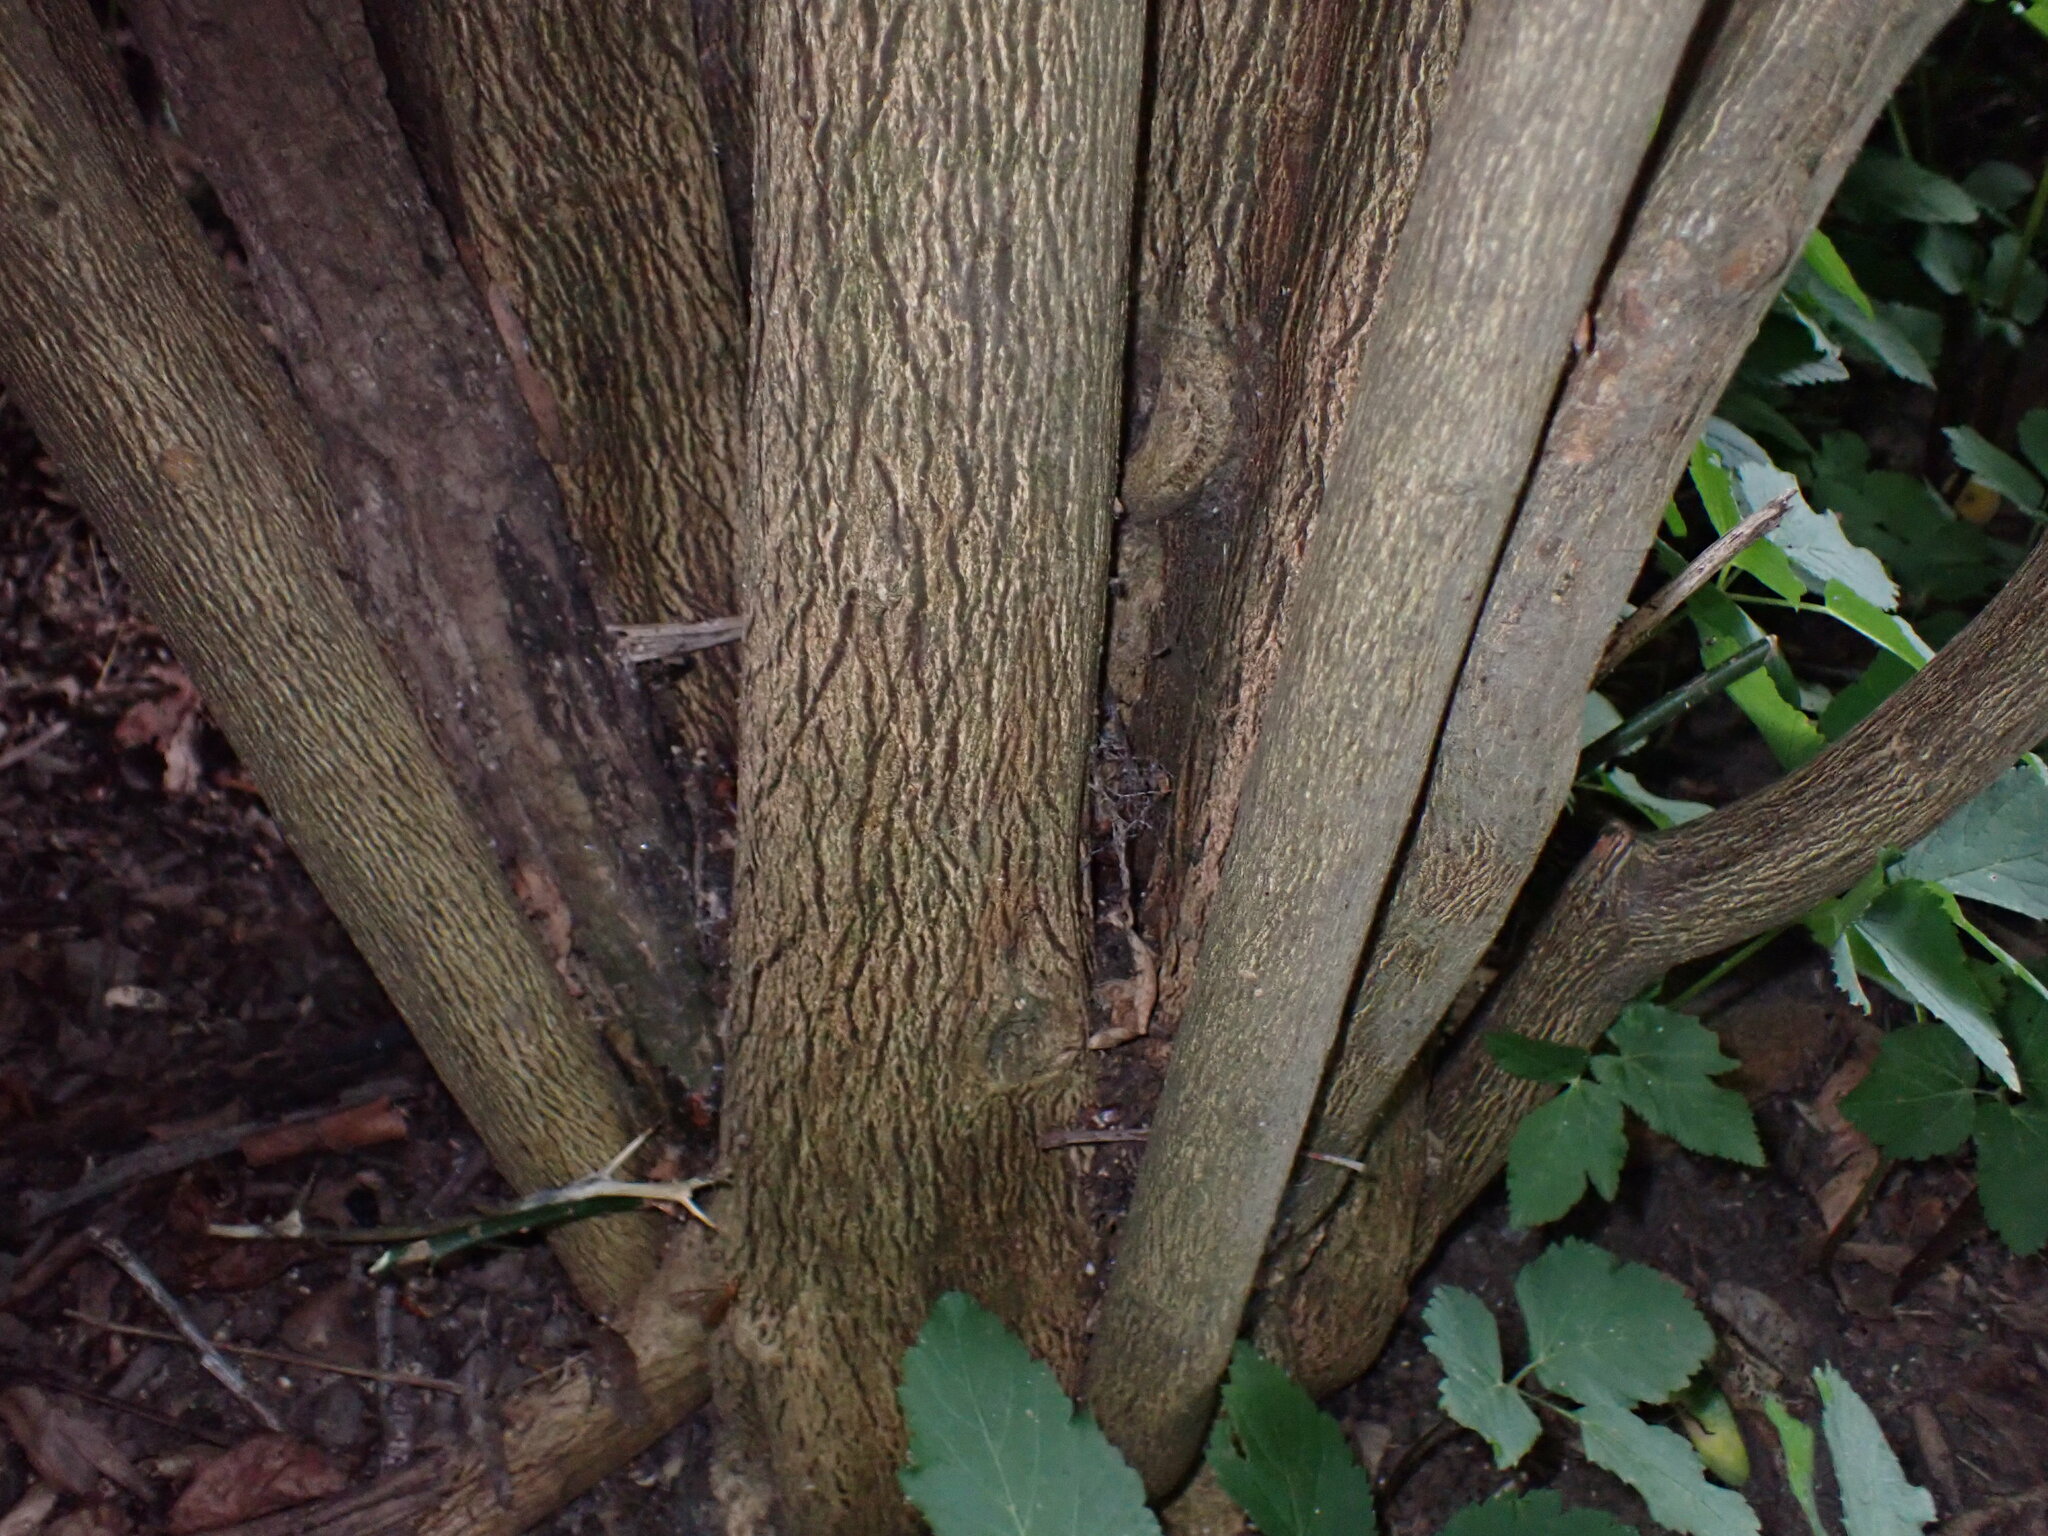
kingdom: Plantae
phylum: Tracheophyta
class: Magnoliopsida
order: Sapindales
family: Rutaceae
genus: Citrus
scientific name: Citrus trifoliata
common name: Japanese bitter-orange
